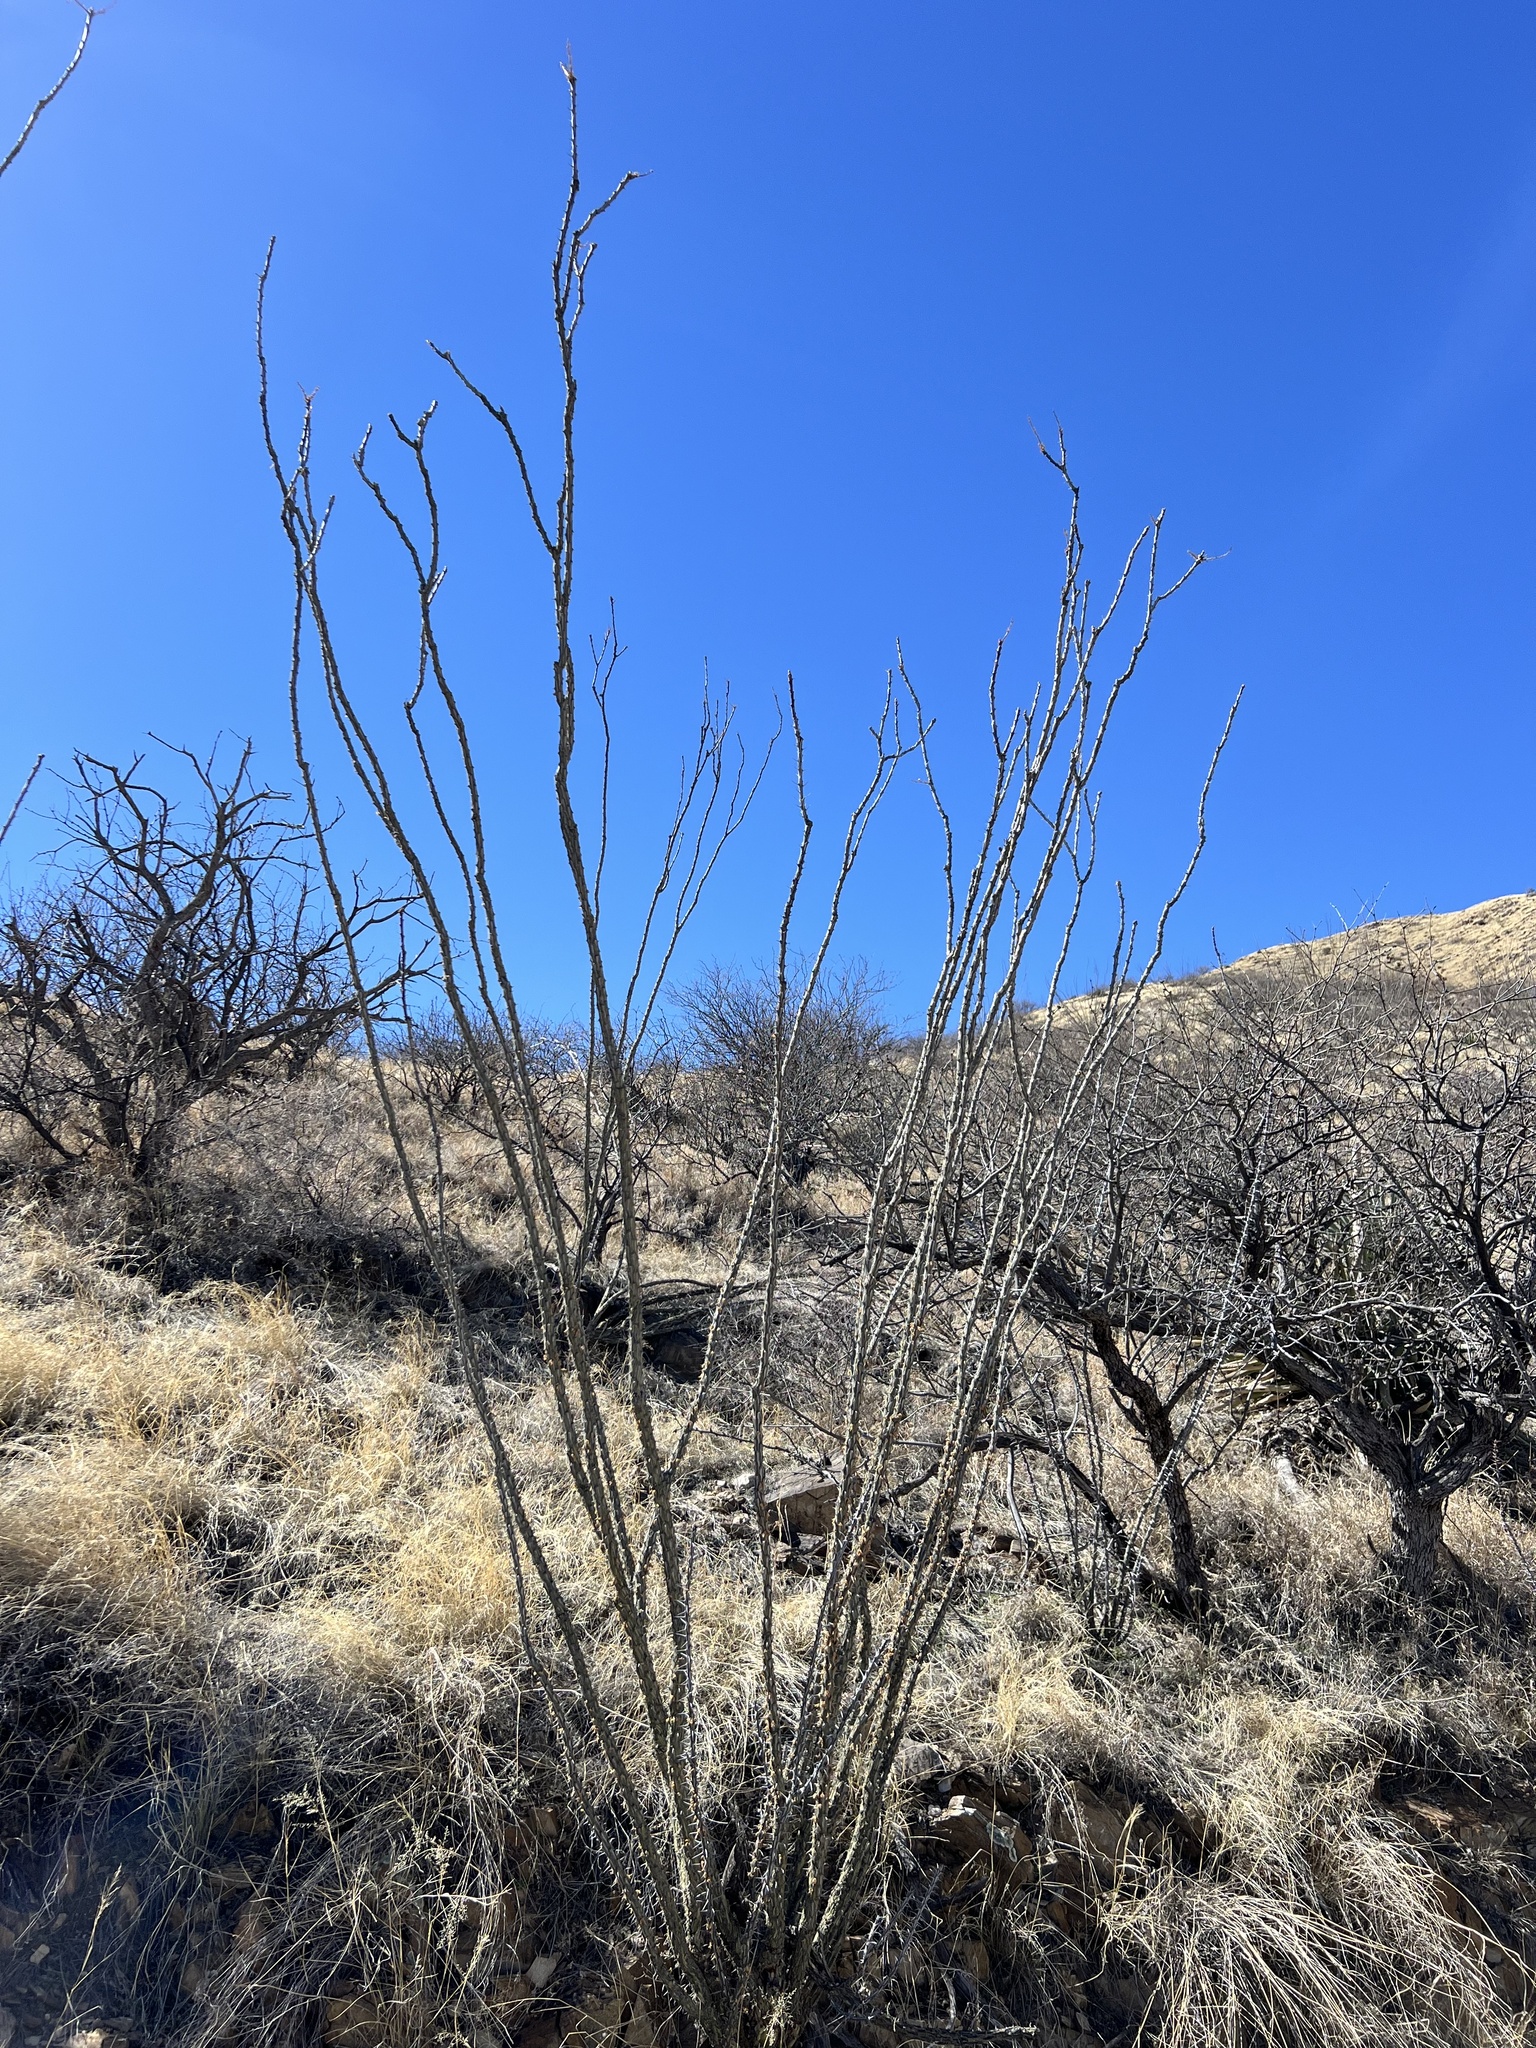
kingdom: Plantae
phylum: Tracheophyta
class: Magnoliopsida
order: Ericales
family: Fouquieriaceae
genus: Fouquieria
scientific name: Fouquieria splendens
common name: Vine-cactus
